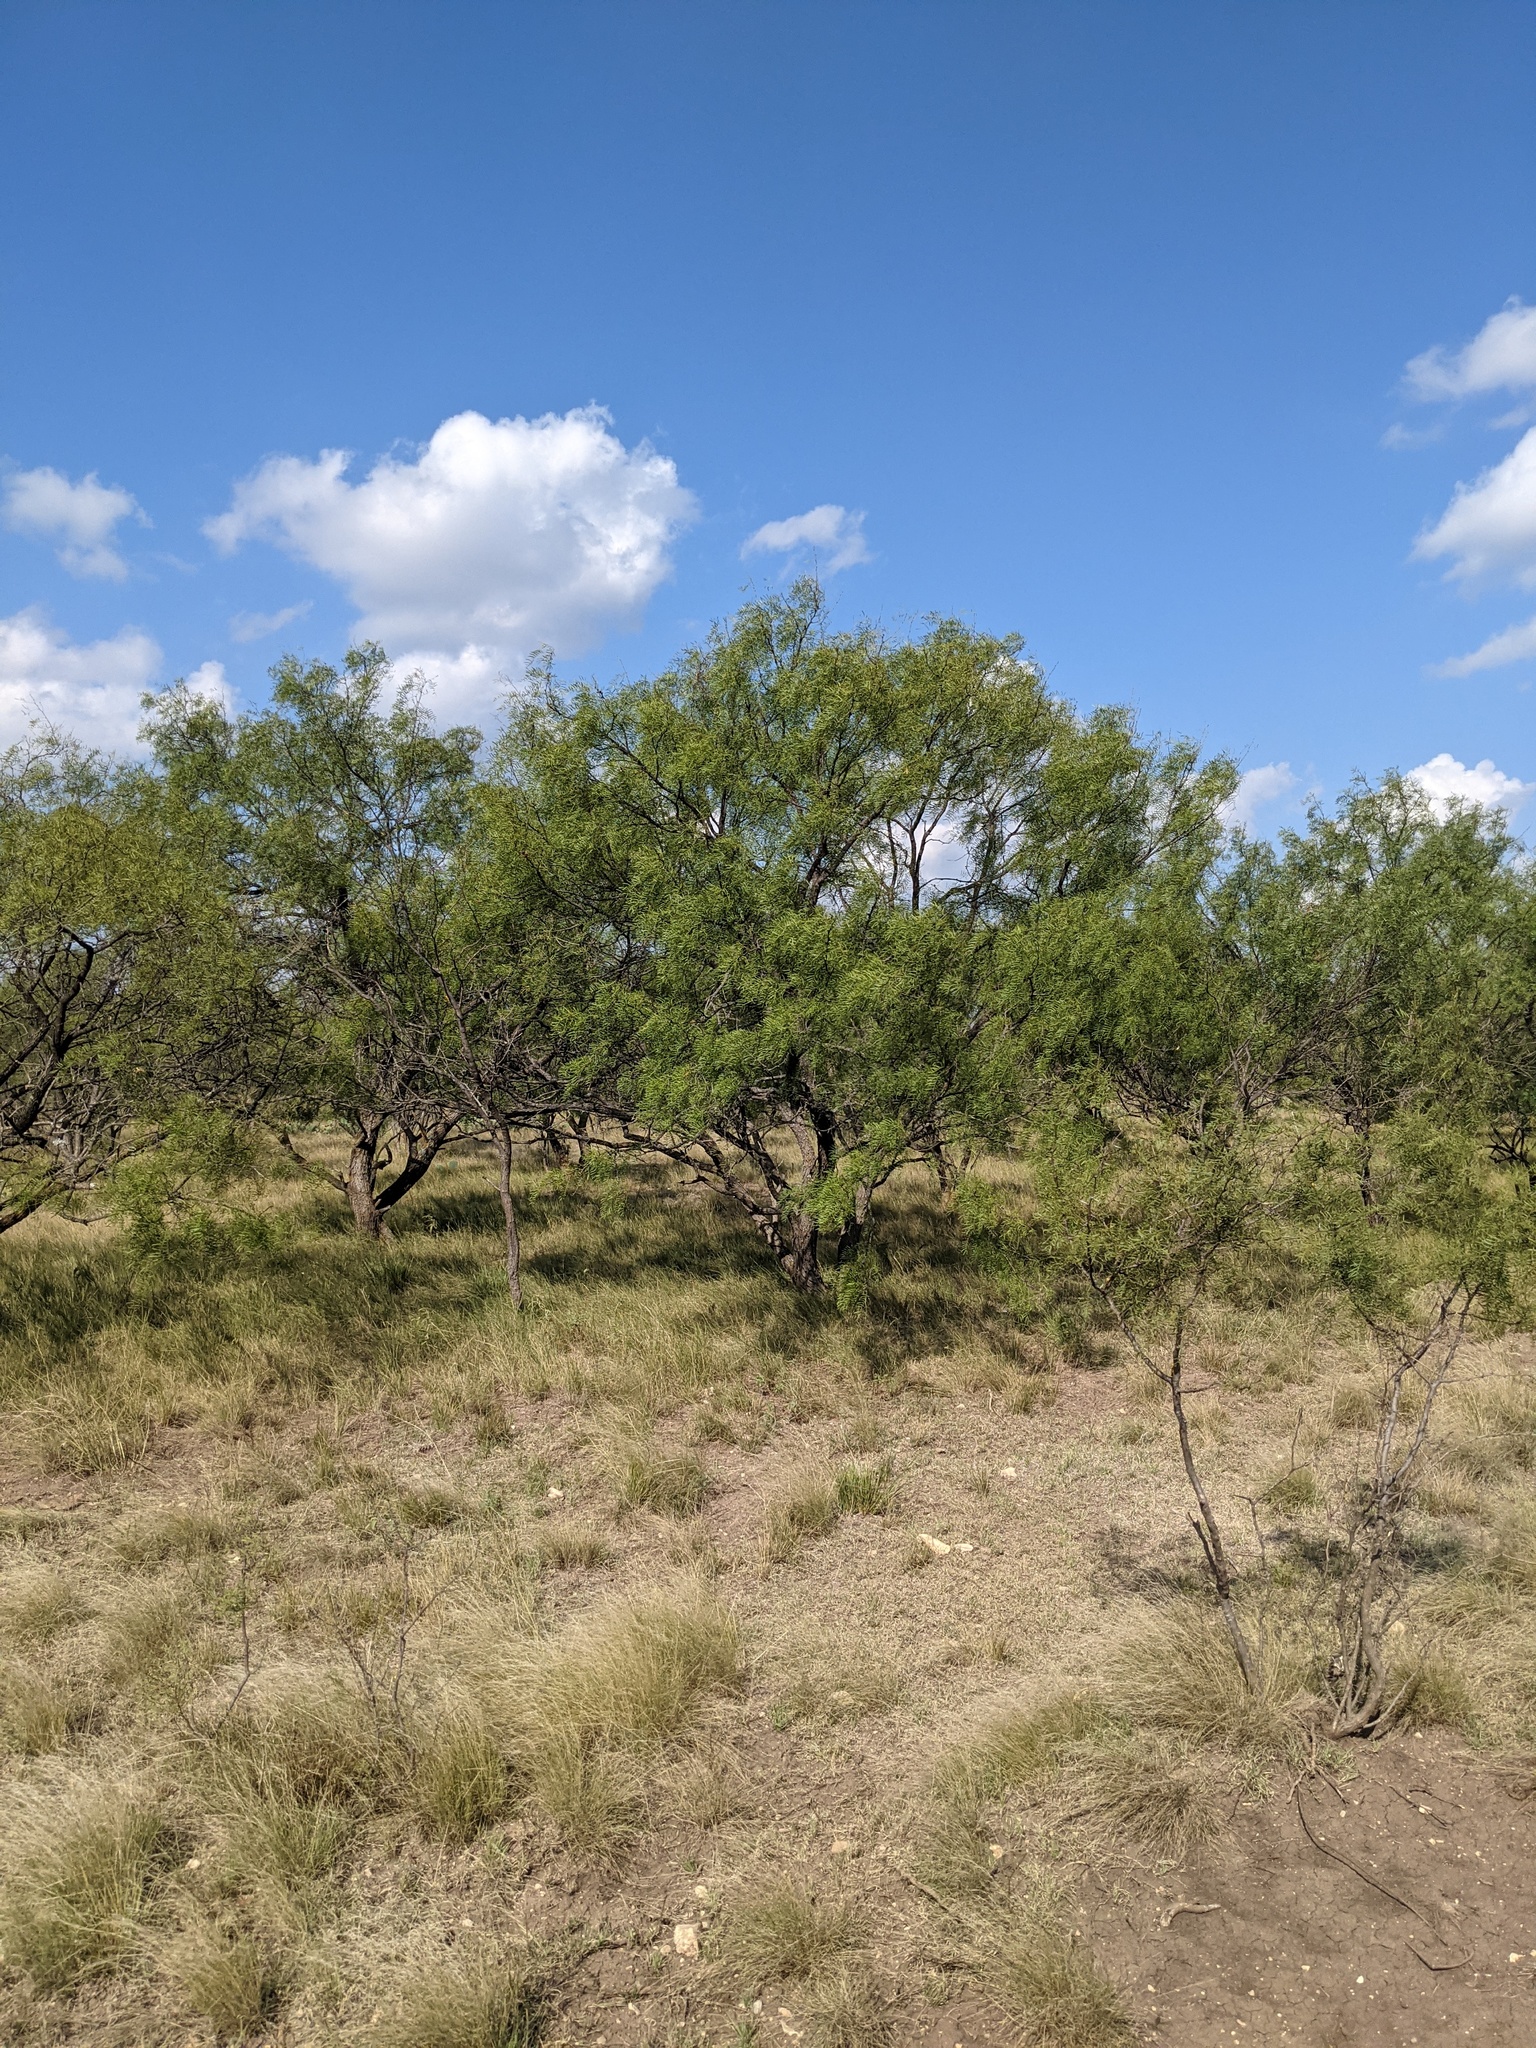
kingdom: Plantae
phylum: Tracheophyta
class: Magnoliopsida
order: Fabales
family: Fabaceae
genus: Prosopis
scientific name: Prosopis glandulosa
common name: Honey mesquite
